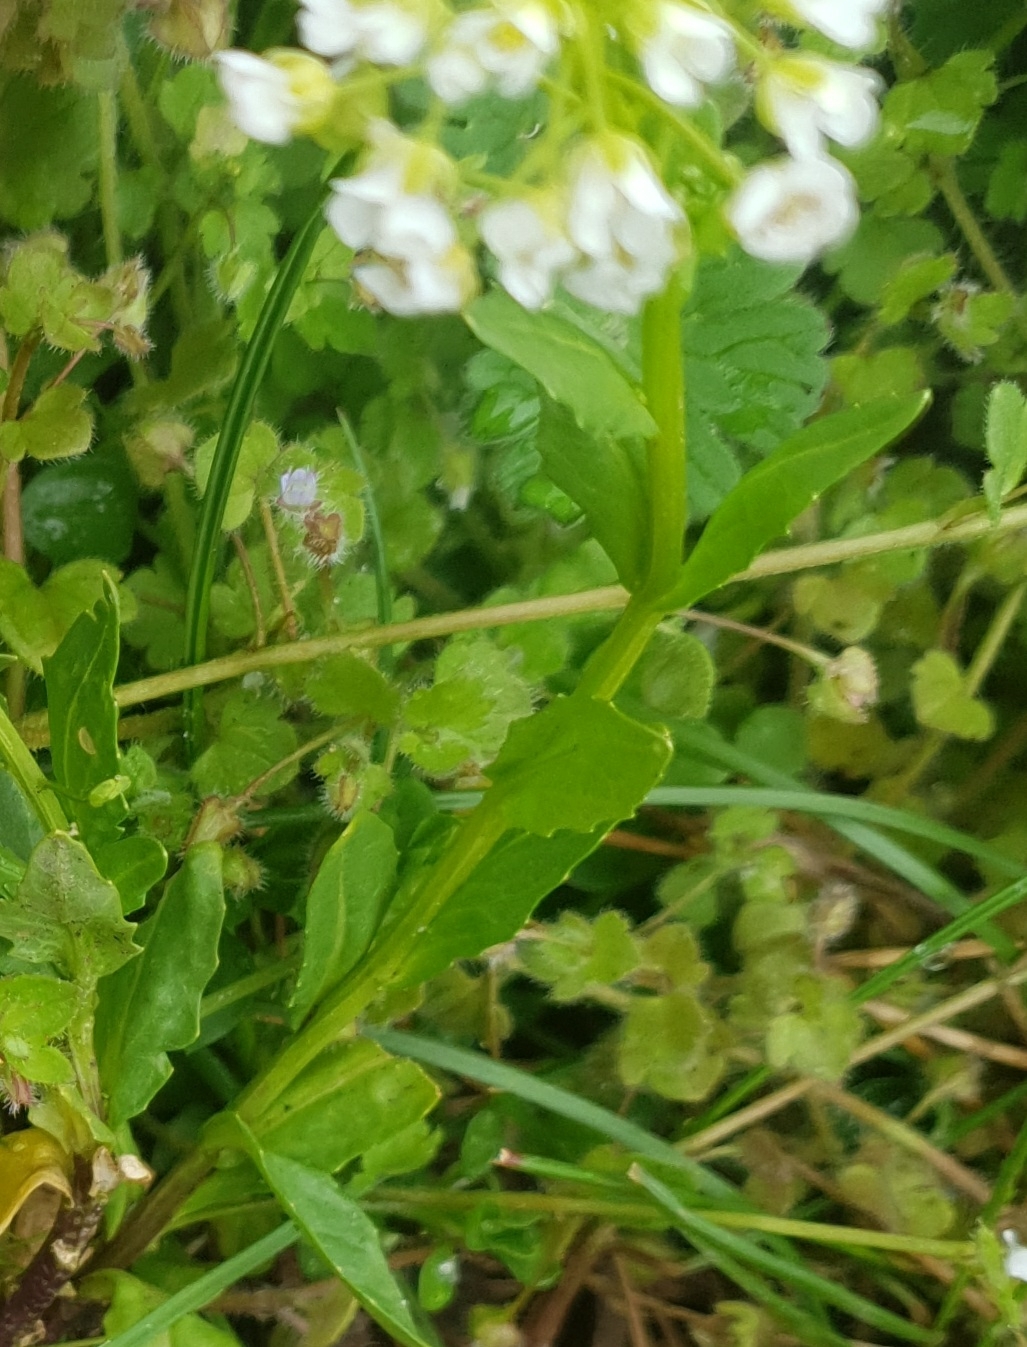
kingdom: Plantae
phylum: Tracheophyta
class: Magnoliopsida
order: Brassicales
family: Brassicaceae
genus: Thlaspi
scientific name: Thlaspi arvense
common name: Field pennycress
